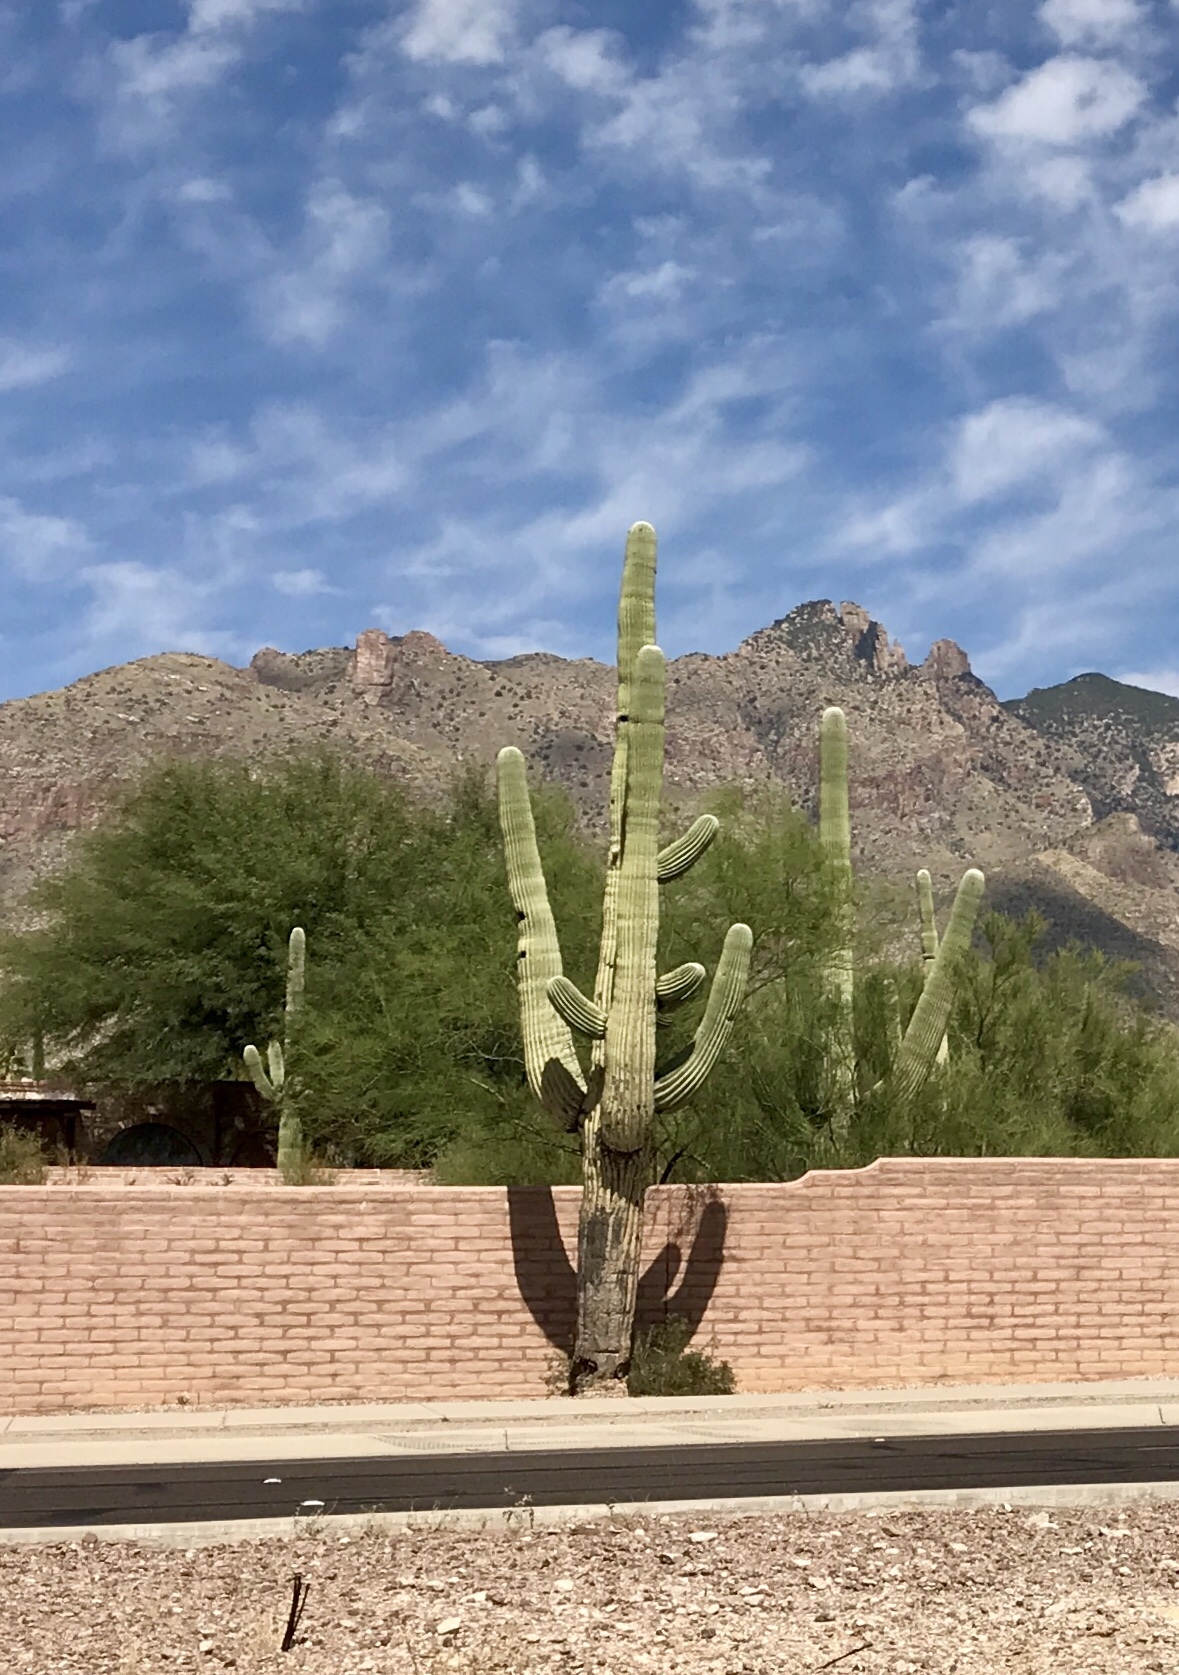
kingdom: Plantae
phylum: Tracheophyta
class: Magnoliopsida
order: Caryophyllales
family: Cactaceae
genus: Carnegiea
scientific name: Carnegiea gigantea
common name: Saguaro
